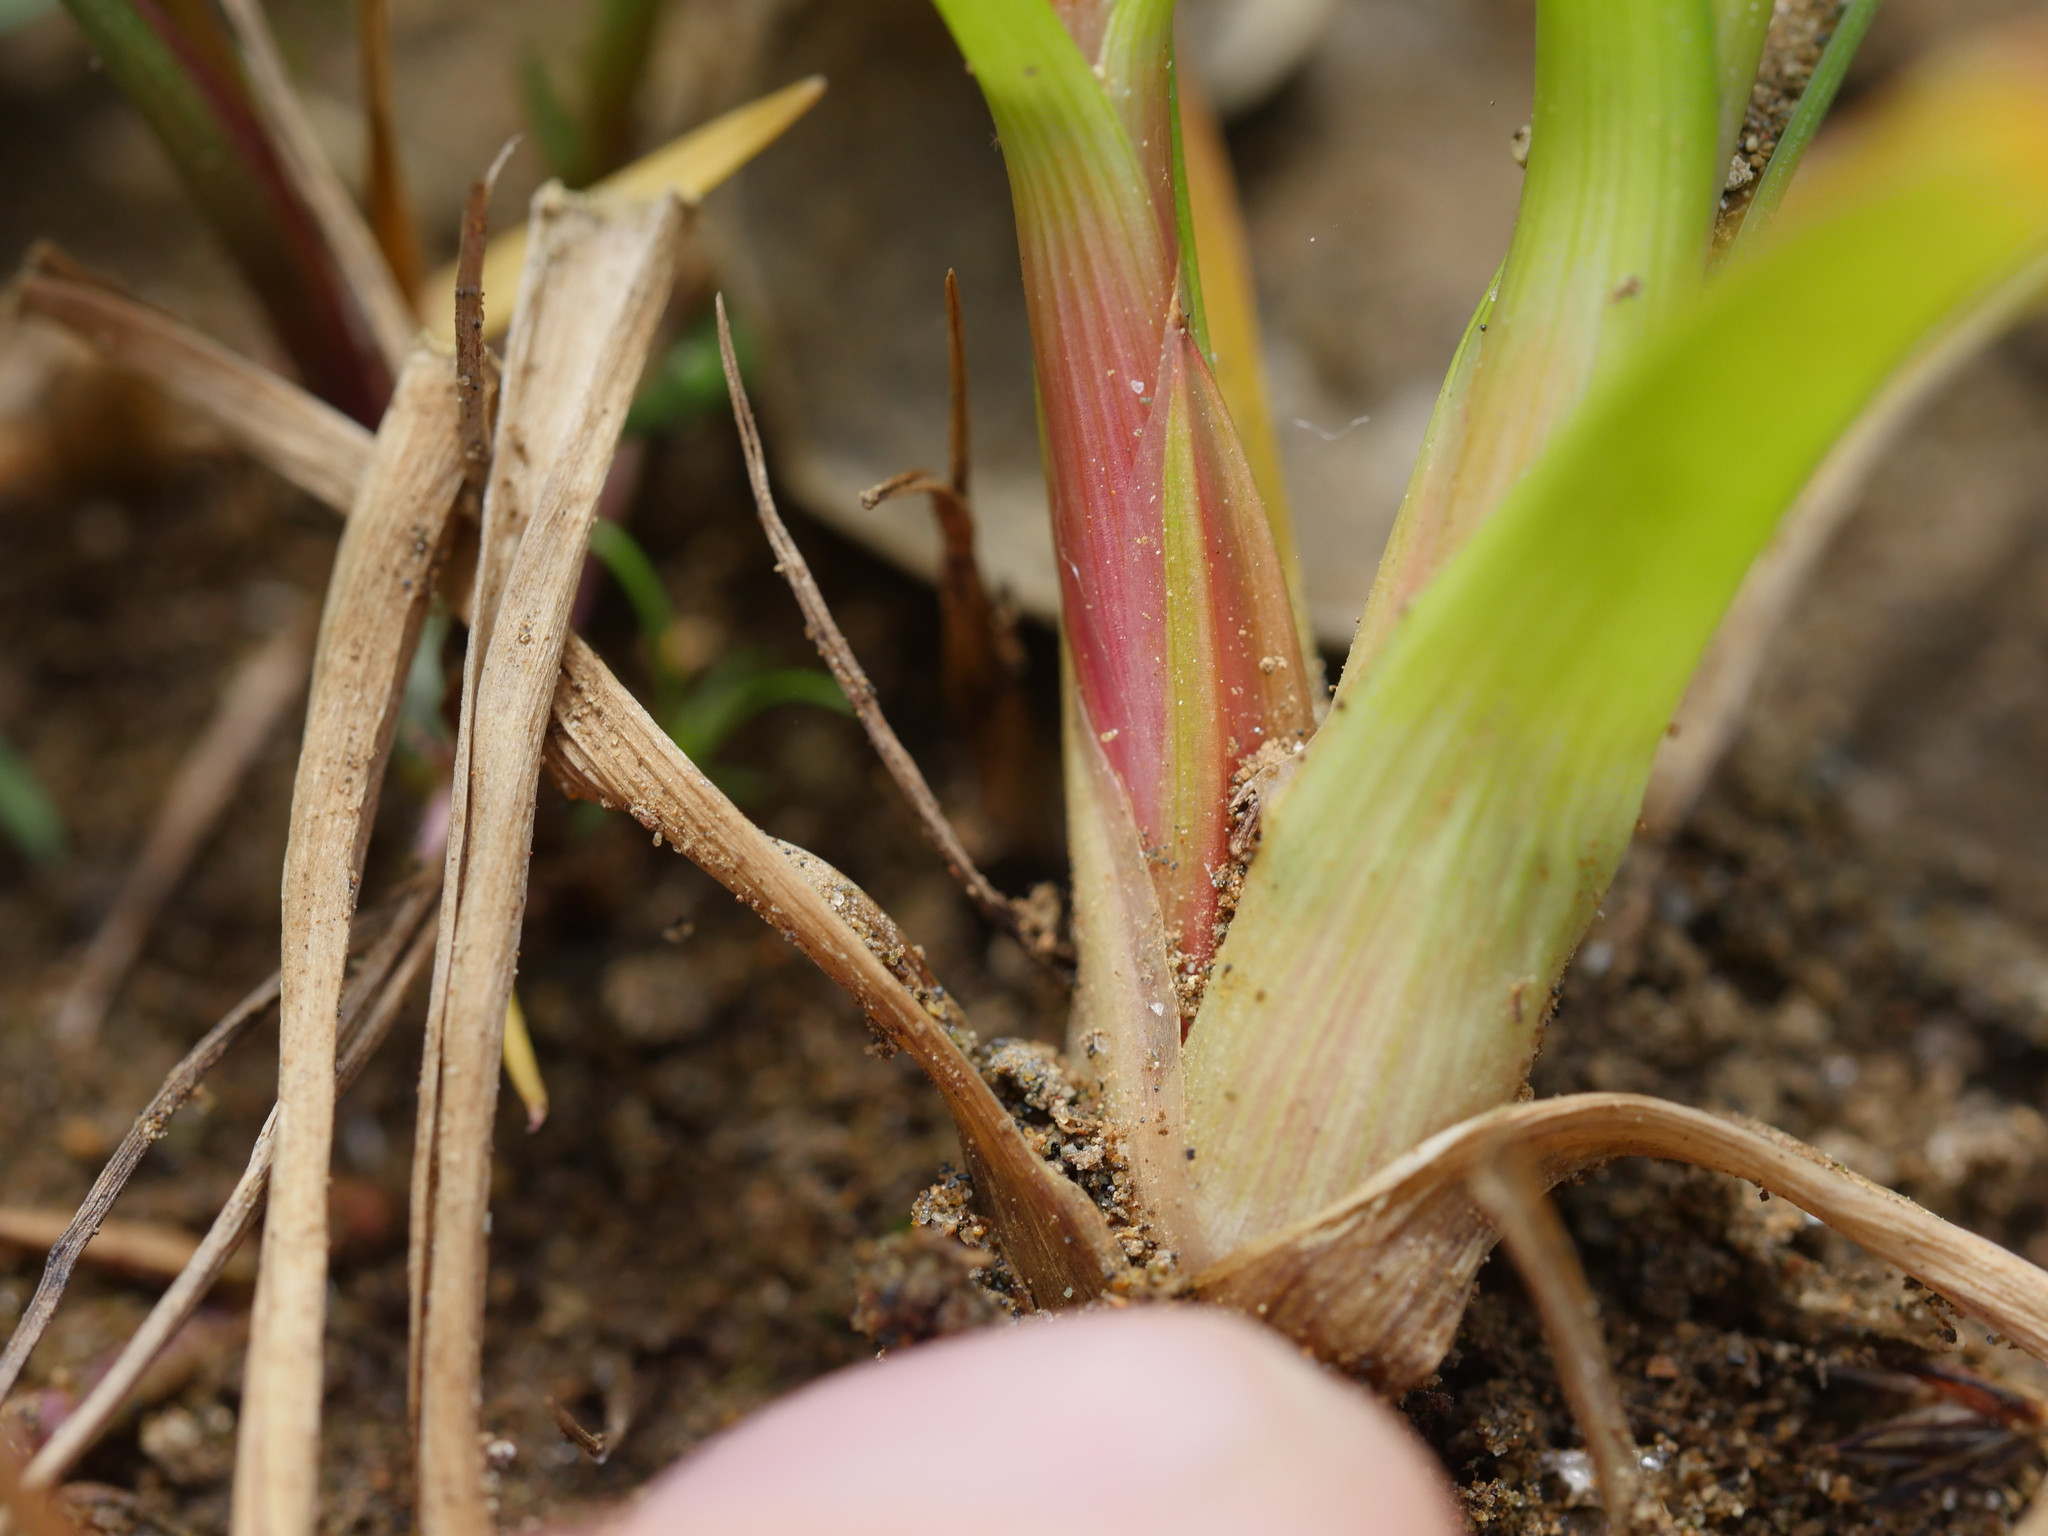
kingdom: Plantae
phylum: Tracheophyta
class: Liliopsida
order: Poales
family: Juncaceae
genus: Juncus
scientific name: Juncus sonderianus
